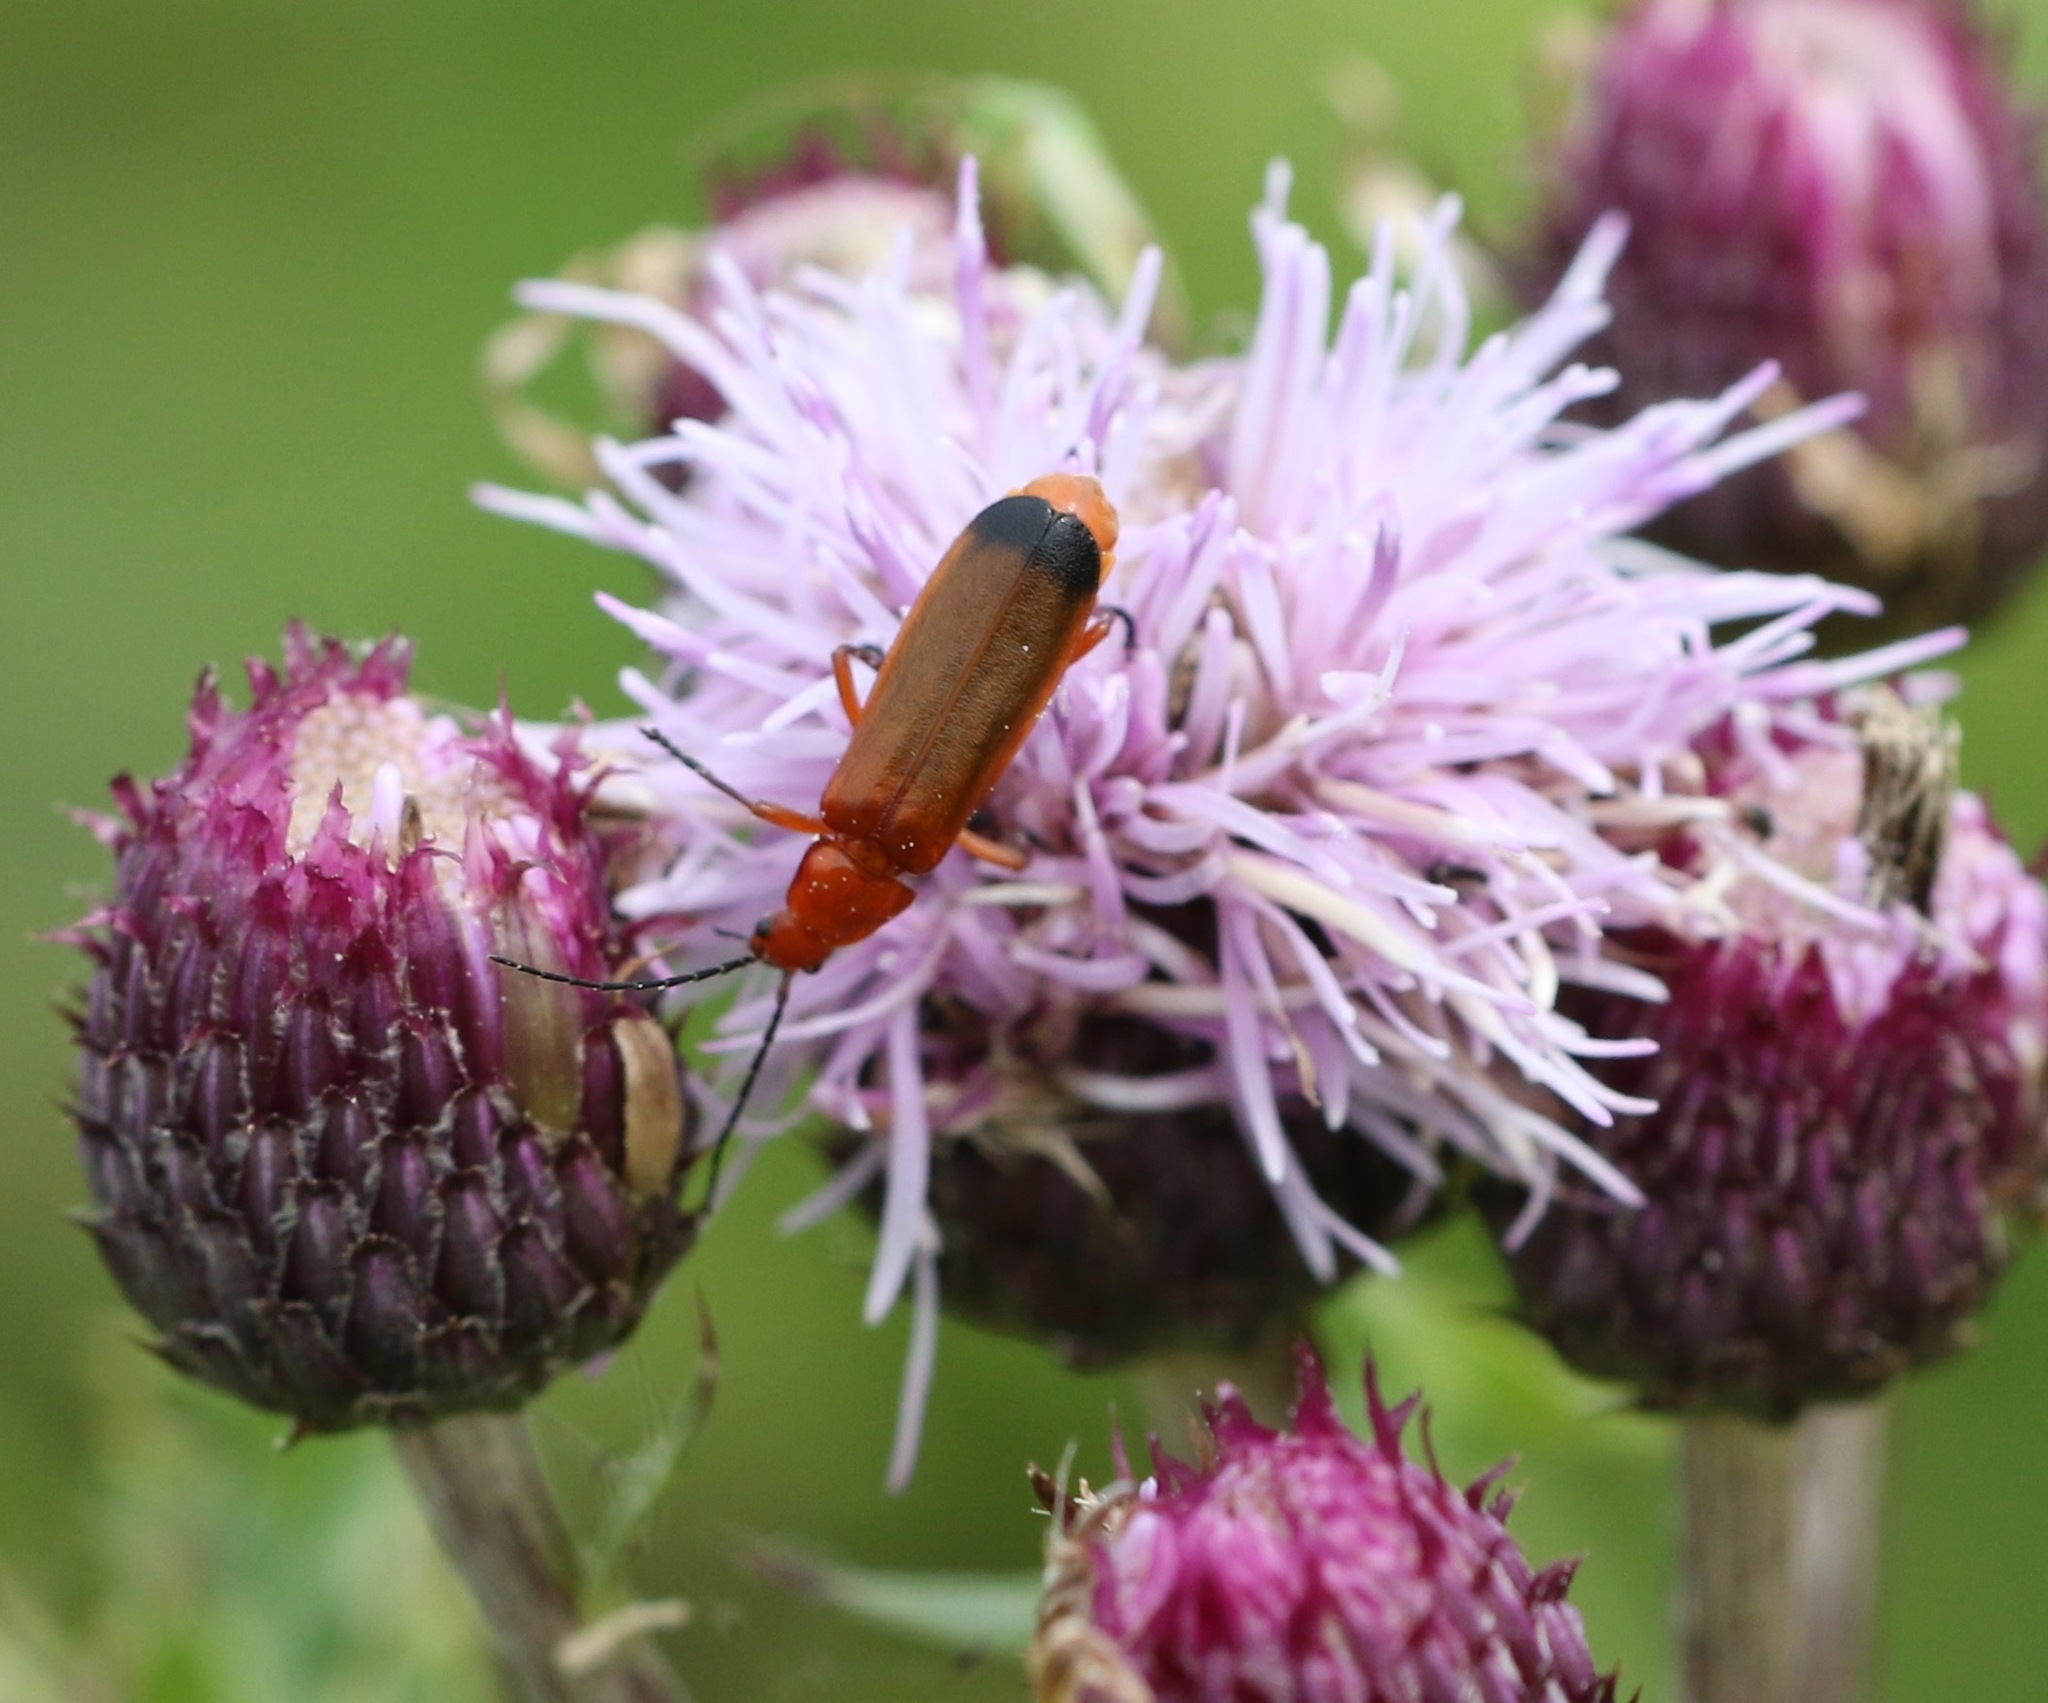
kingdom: Animalia
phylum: Arthropoda
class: Insecta
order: Coleoptera
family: Cantharidae
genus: Rhagonycha
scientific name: Rhagonycha fulva
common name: Common red soldier beetle
